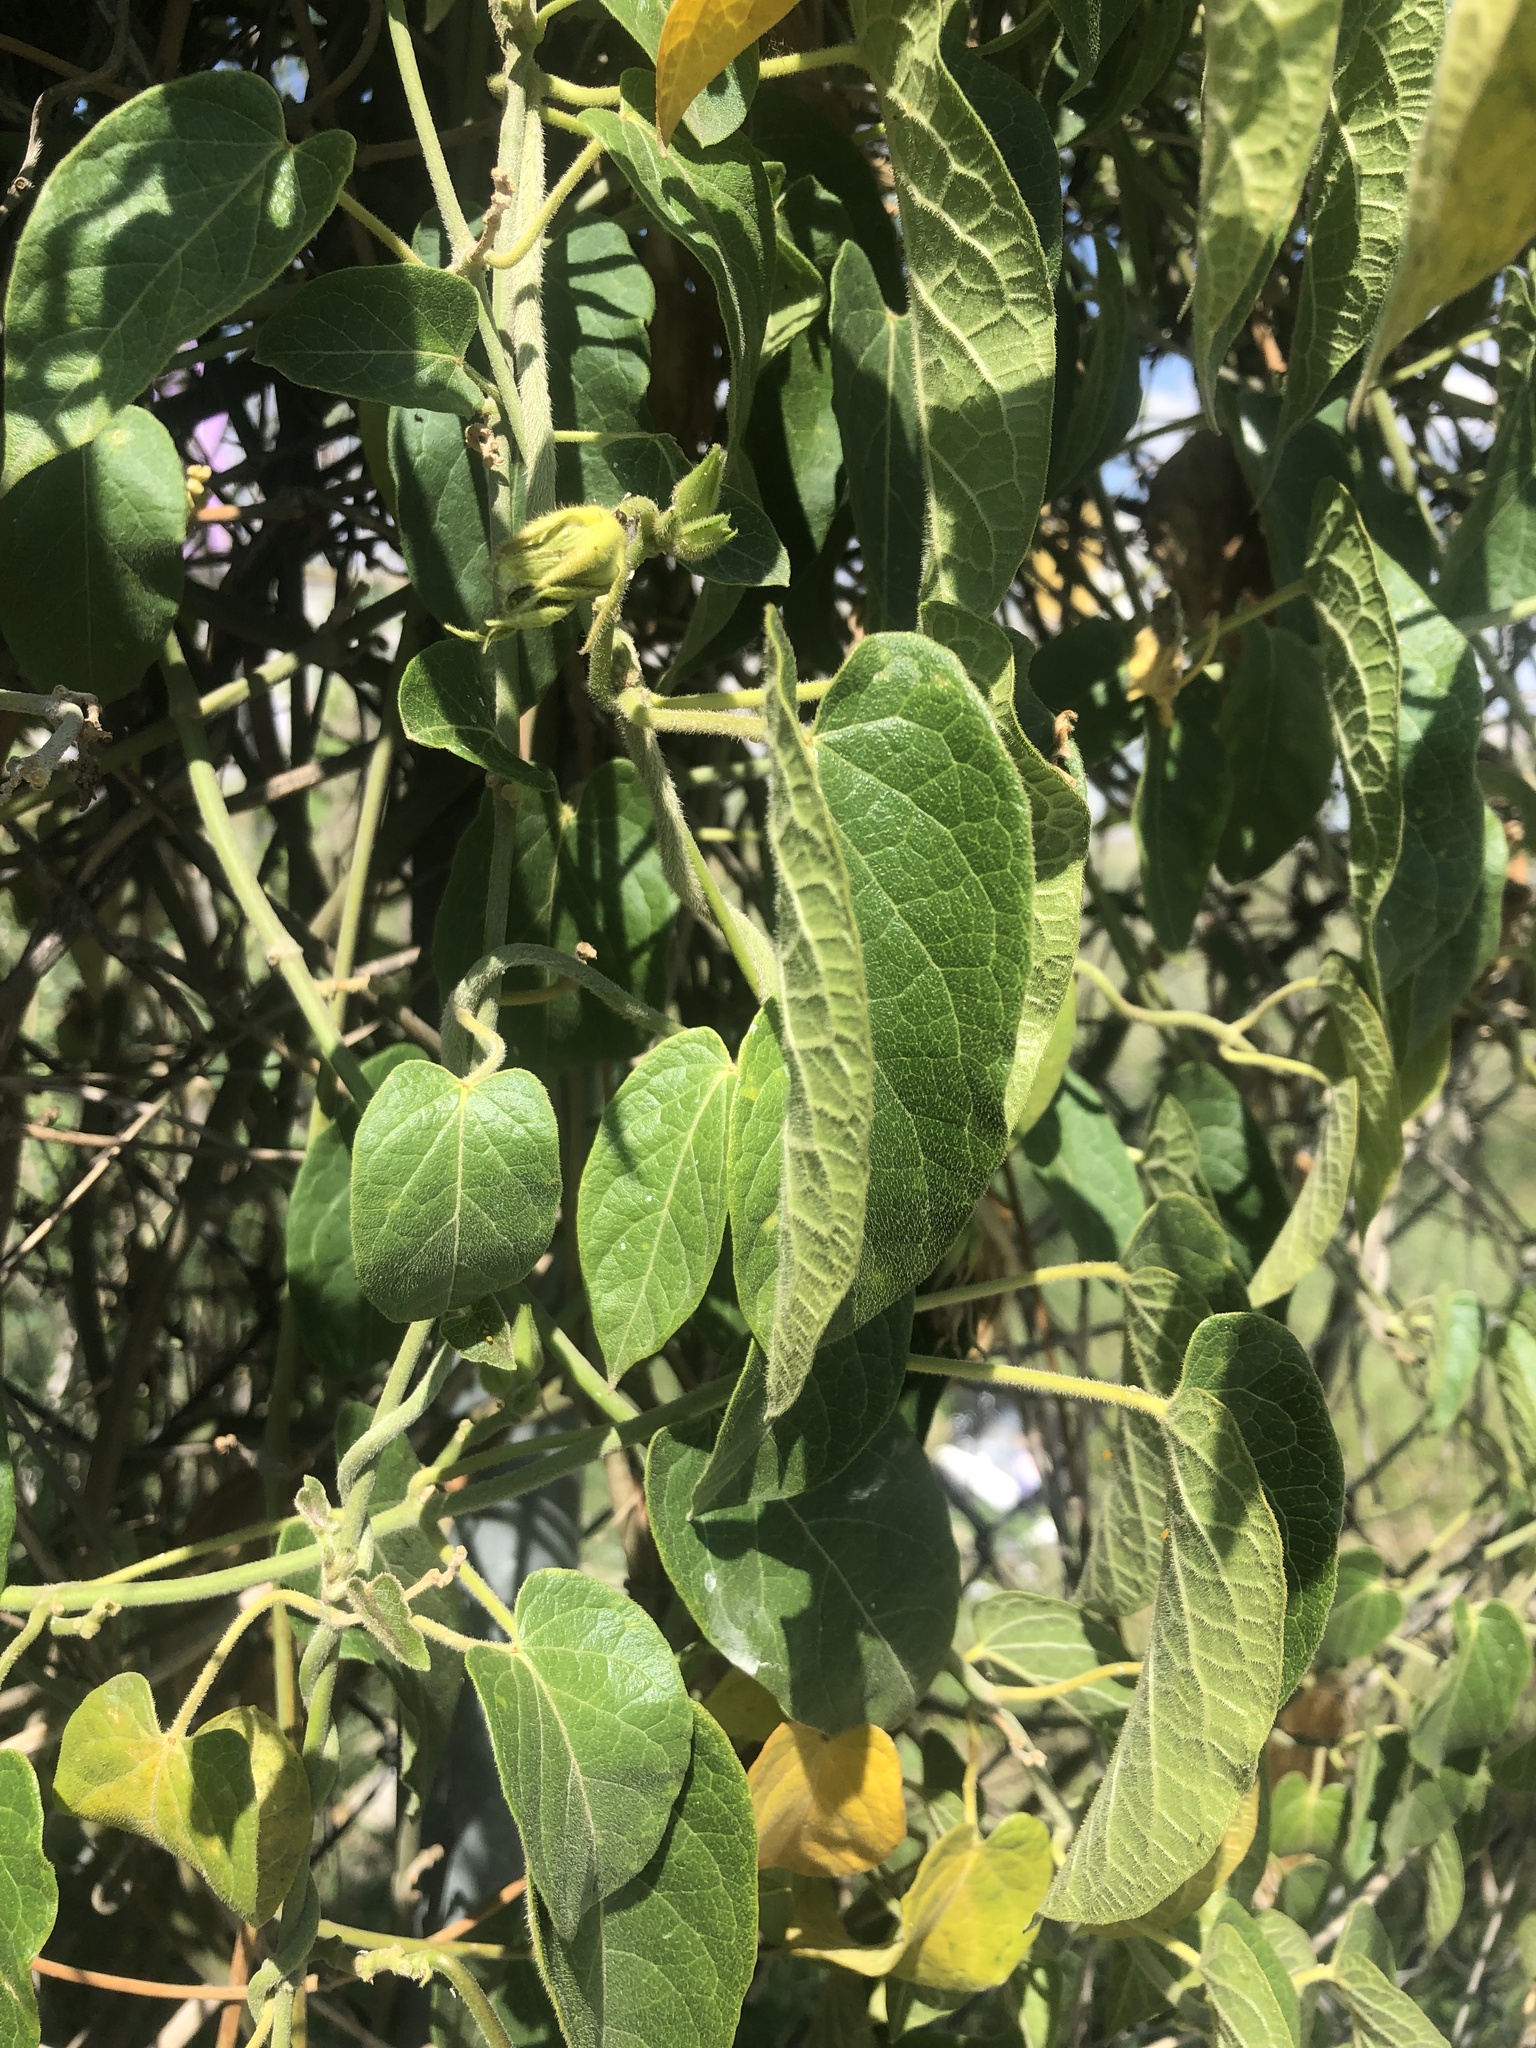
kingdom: Plantae
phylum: Tracheophyta
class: Magnoliopsida
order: Gentianales
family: Apocynaceae
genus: Gonolobus
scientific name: Gonolobus grandiflorus
